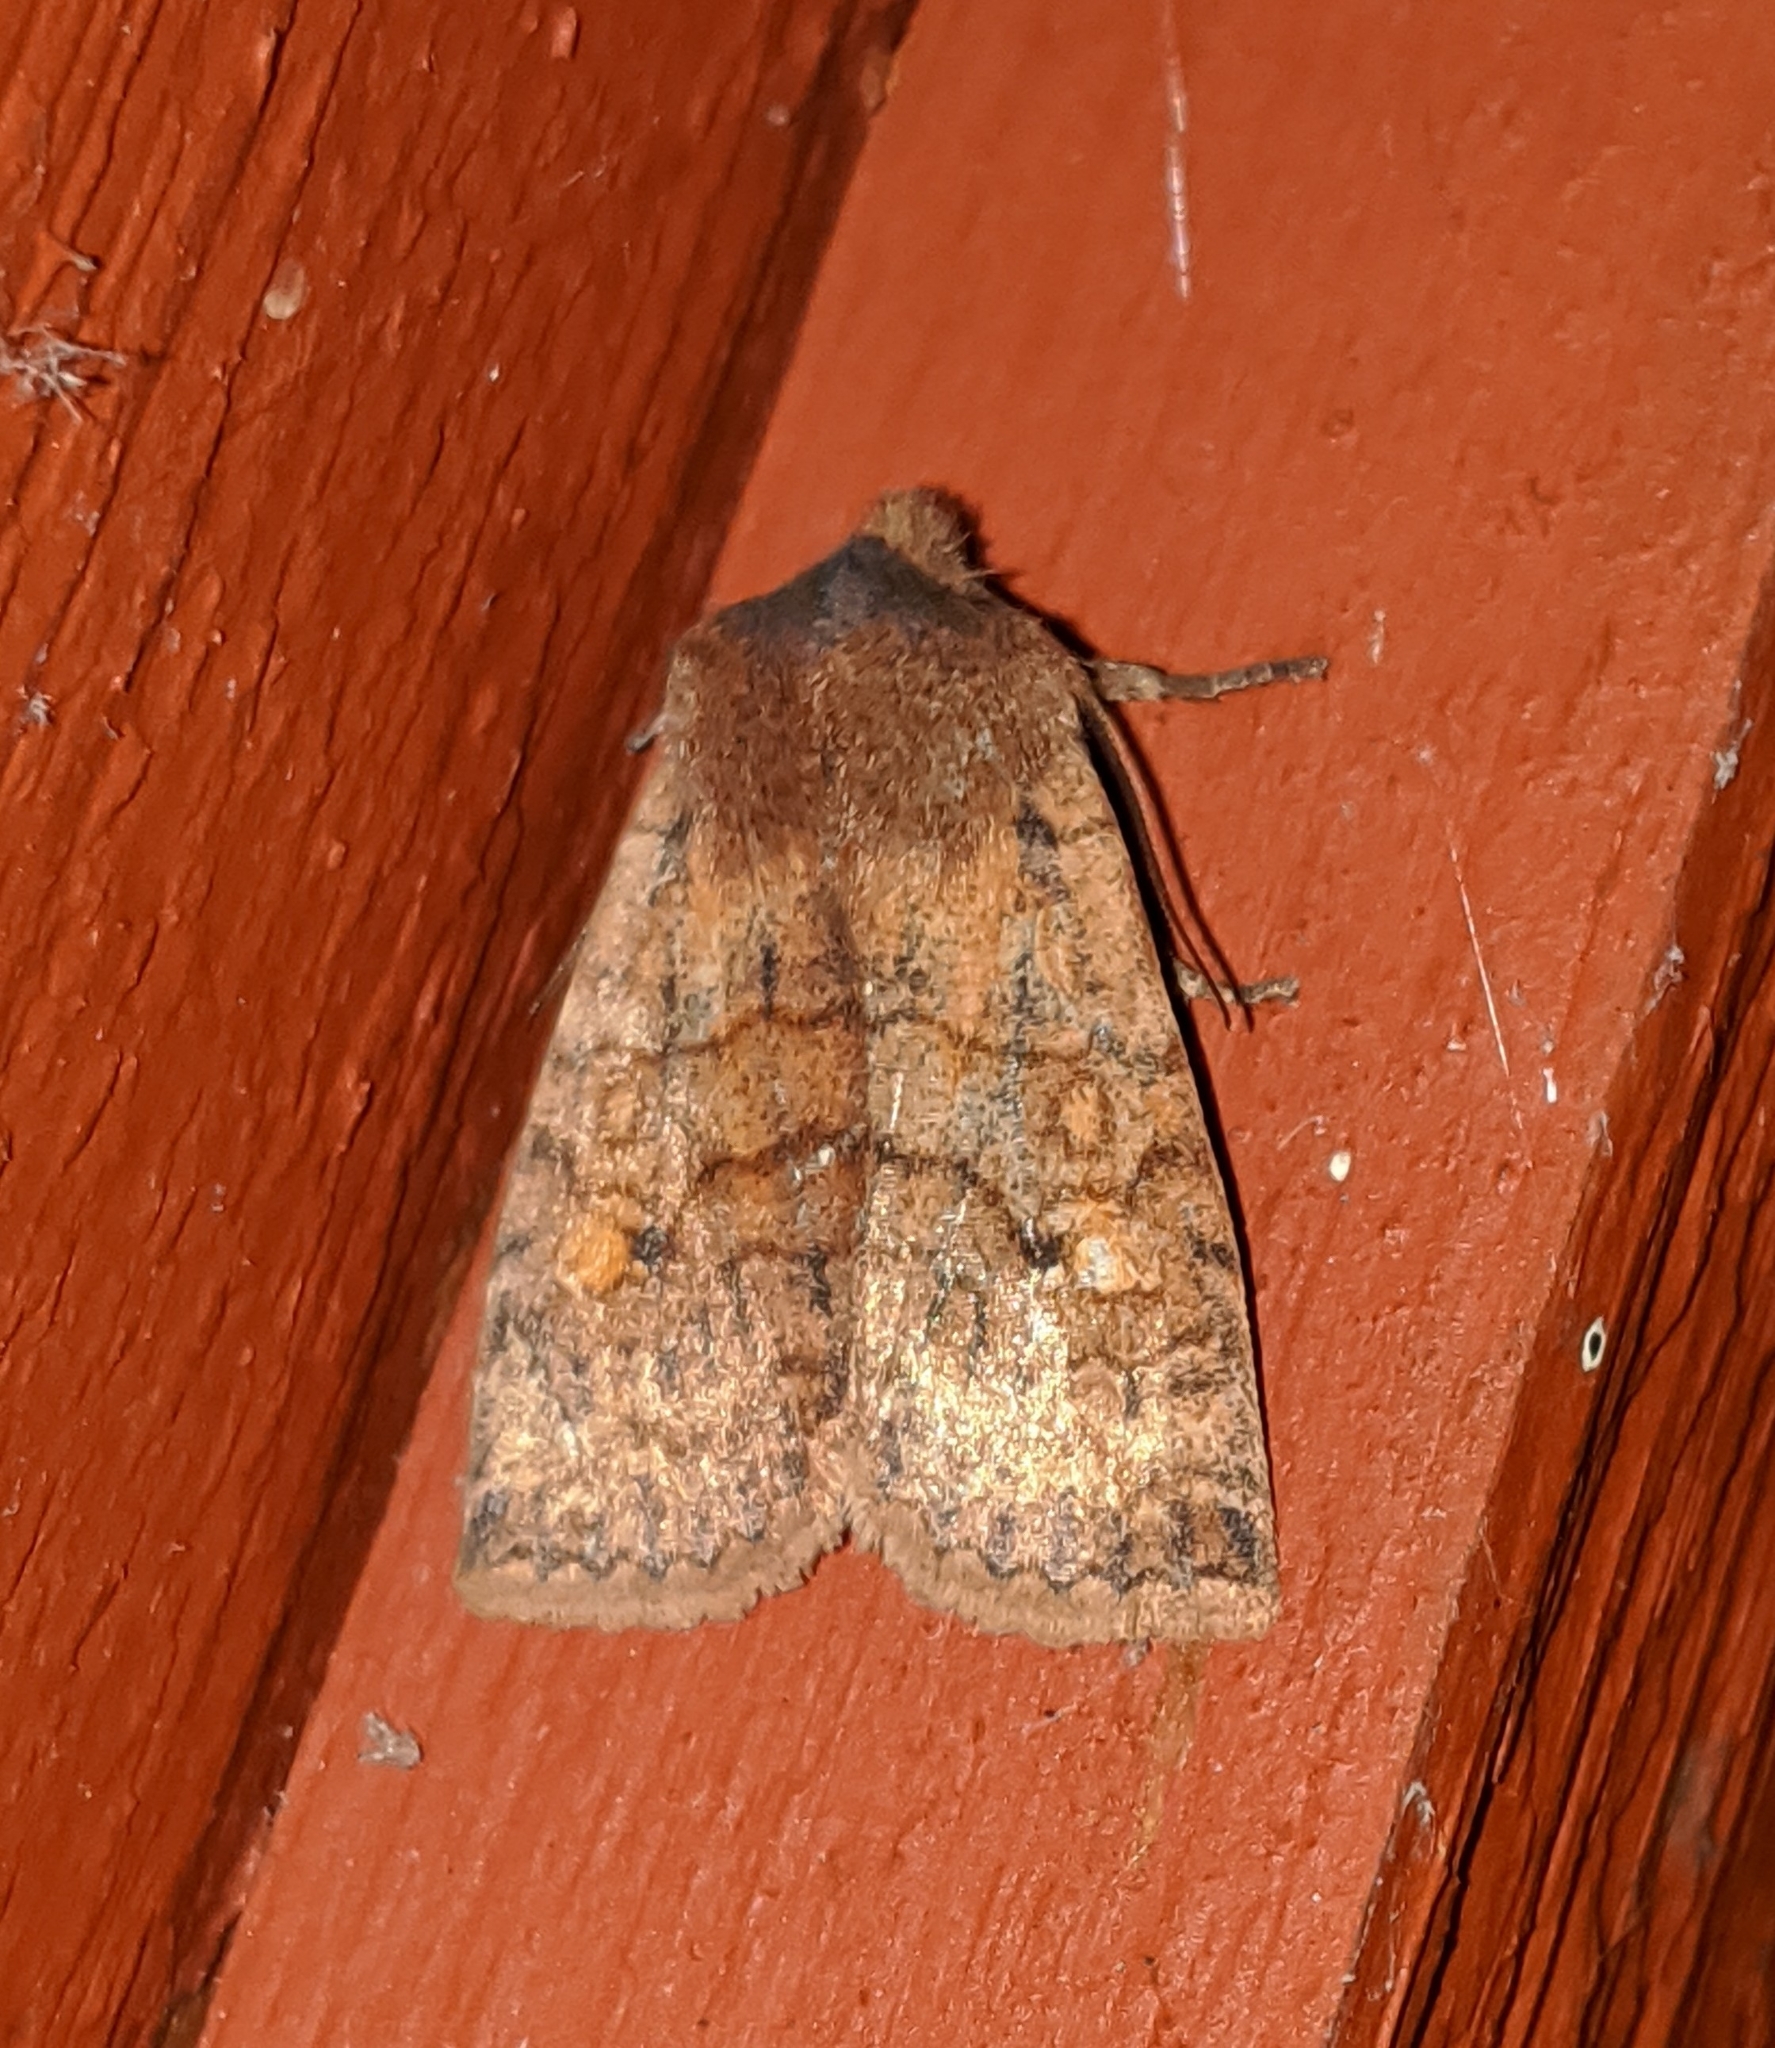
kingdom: Animalia
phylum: Arthropoda
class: Insecta
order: Lepidoptera
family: Noctuidae
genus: Eupsilia
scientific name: Eupsilia tristigmata
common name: Three-spotted sallow
